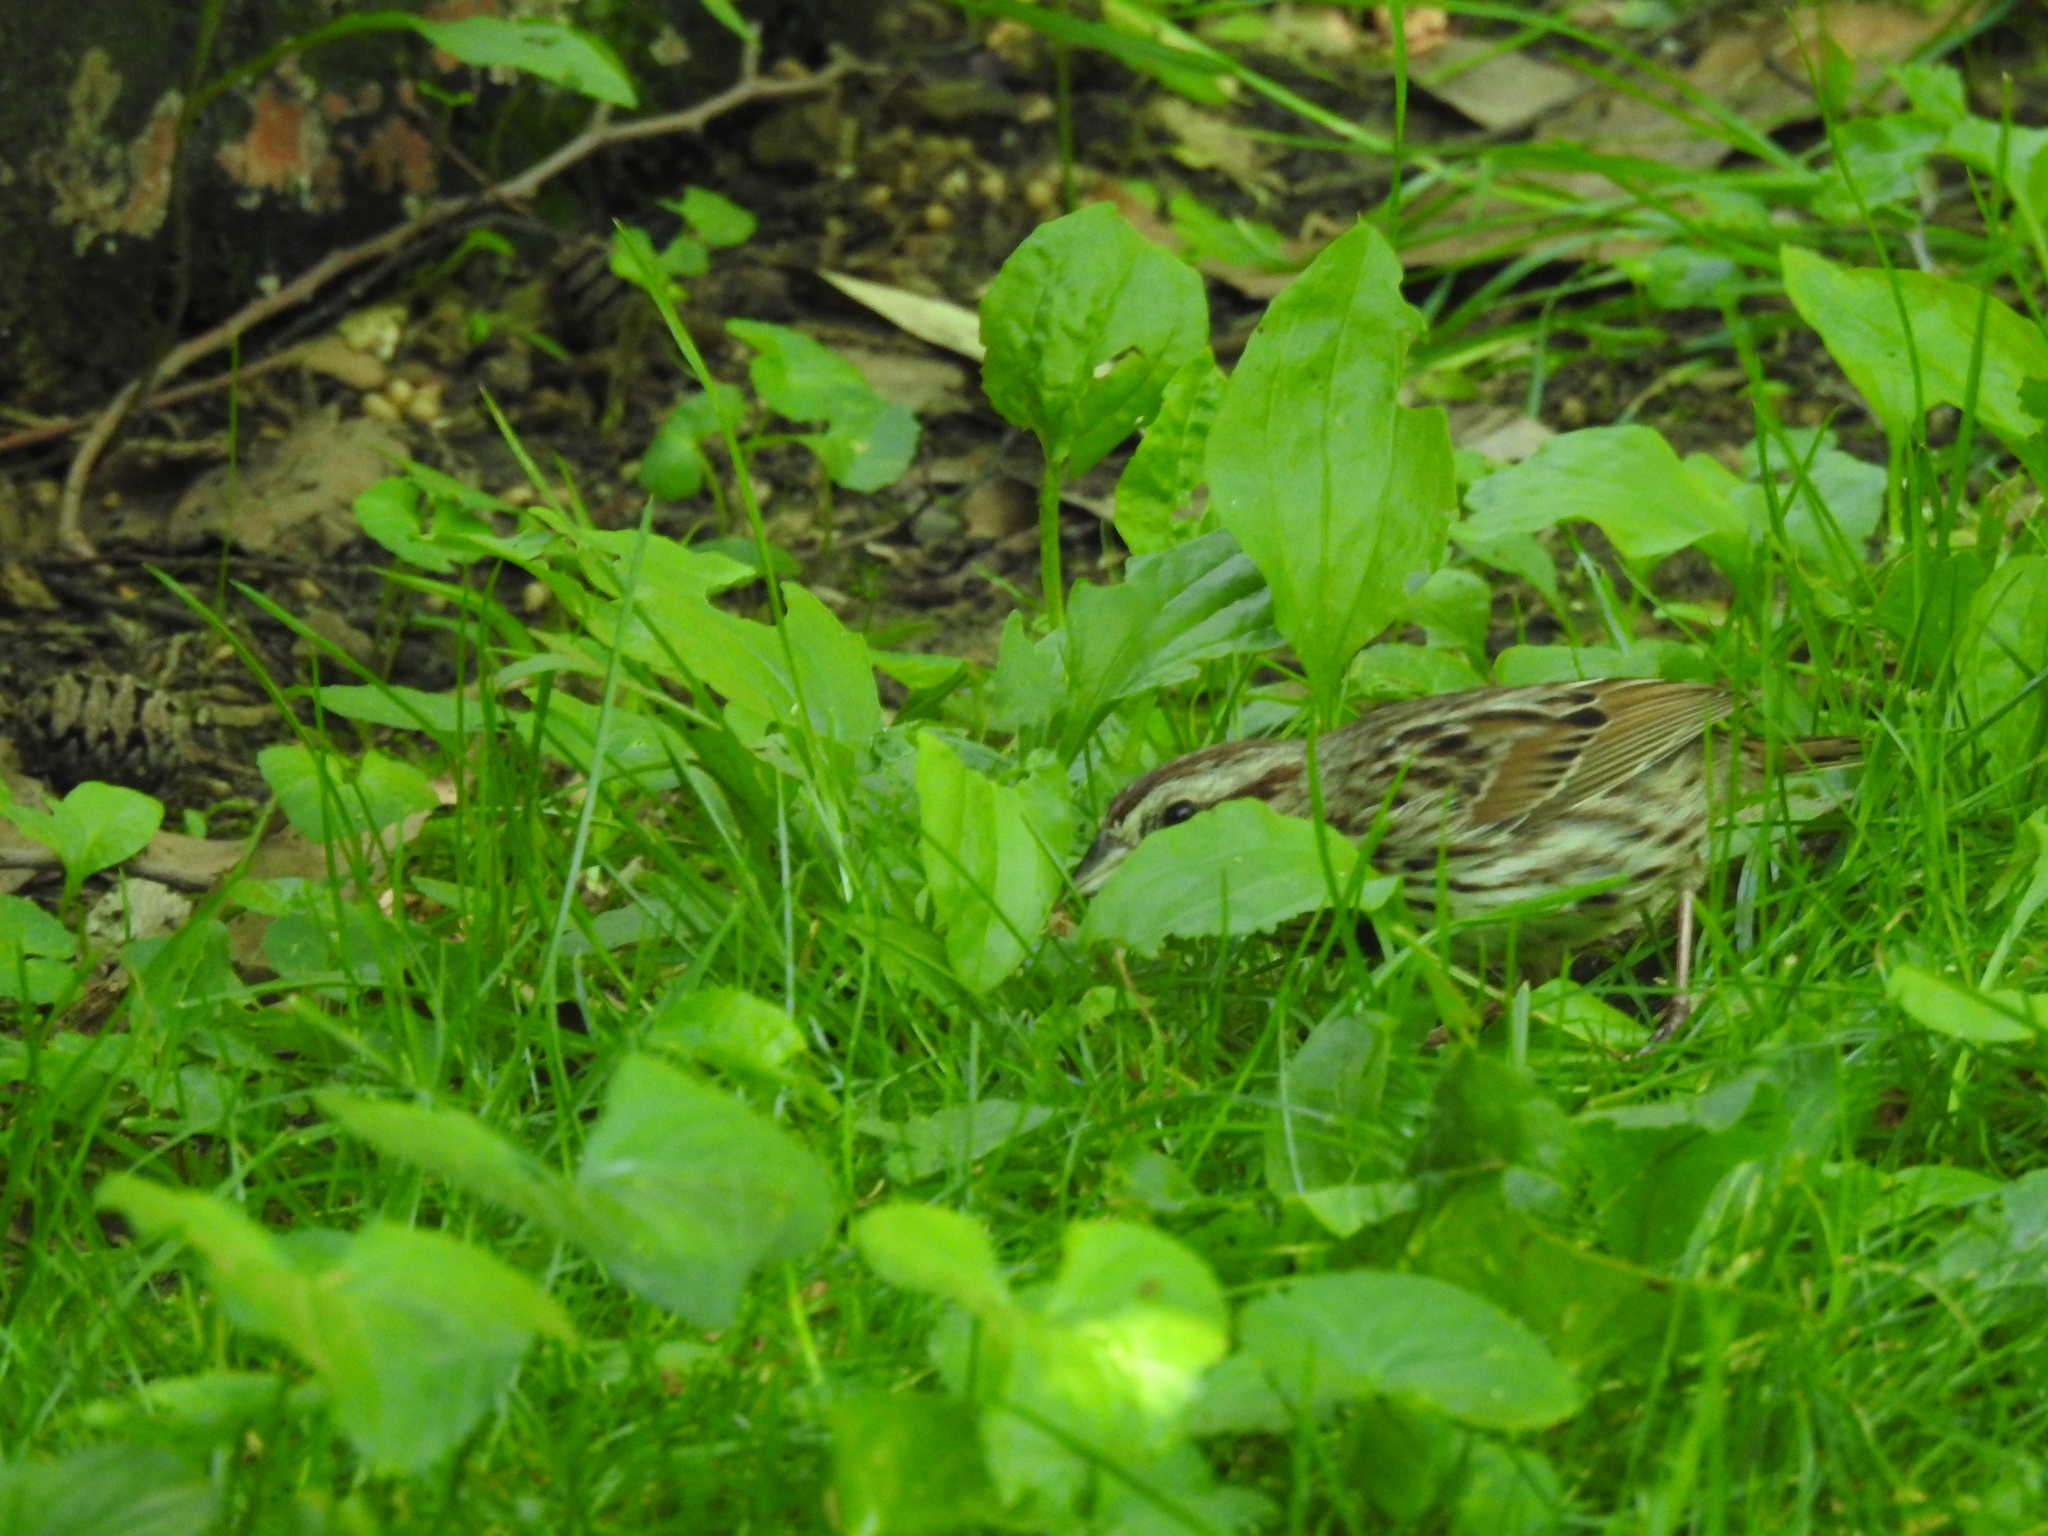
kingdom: Animalia
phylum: Chordata
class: Aves
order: Passeriformes
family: Passerellidae
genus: Melospiza
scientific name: Melospiza melodia
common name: Song sparrow
